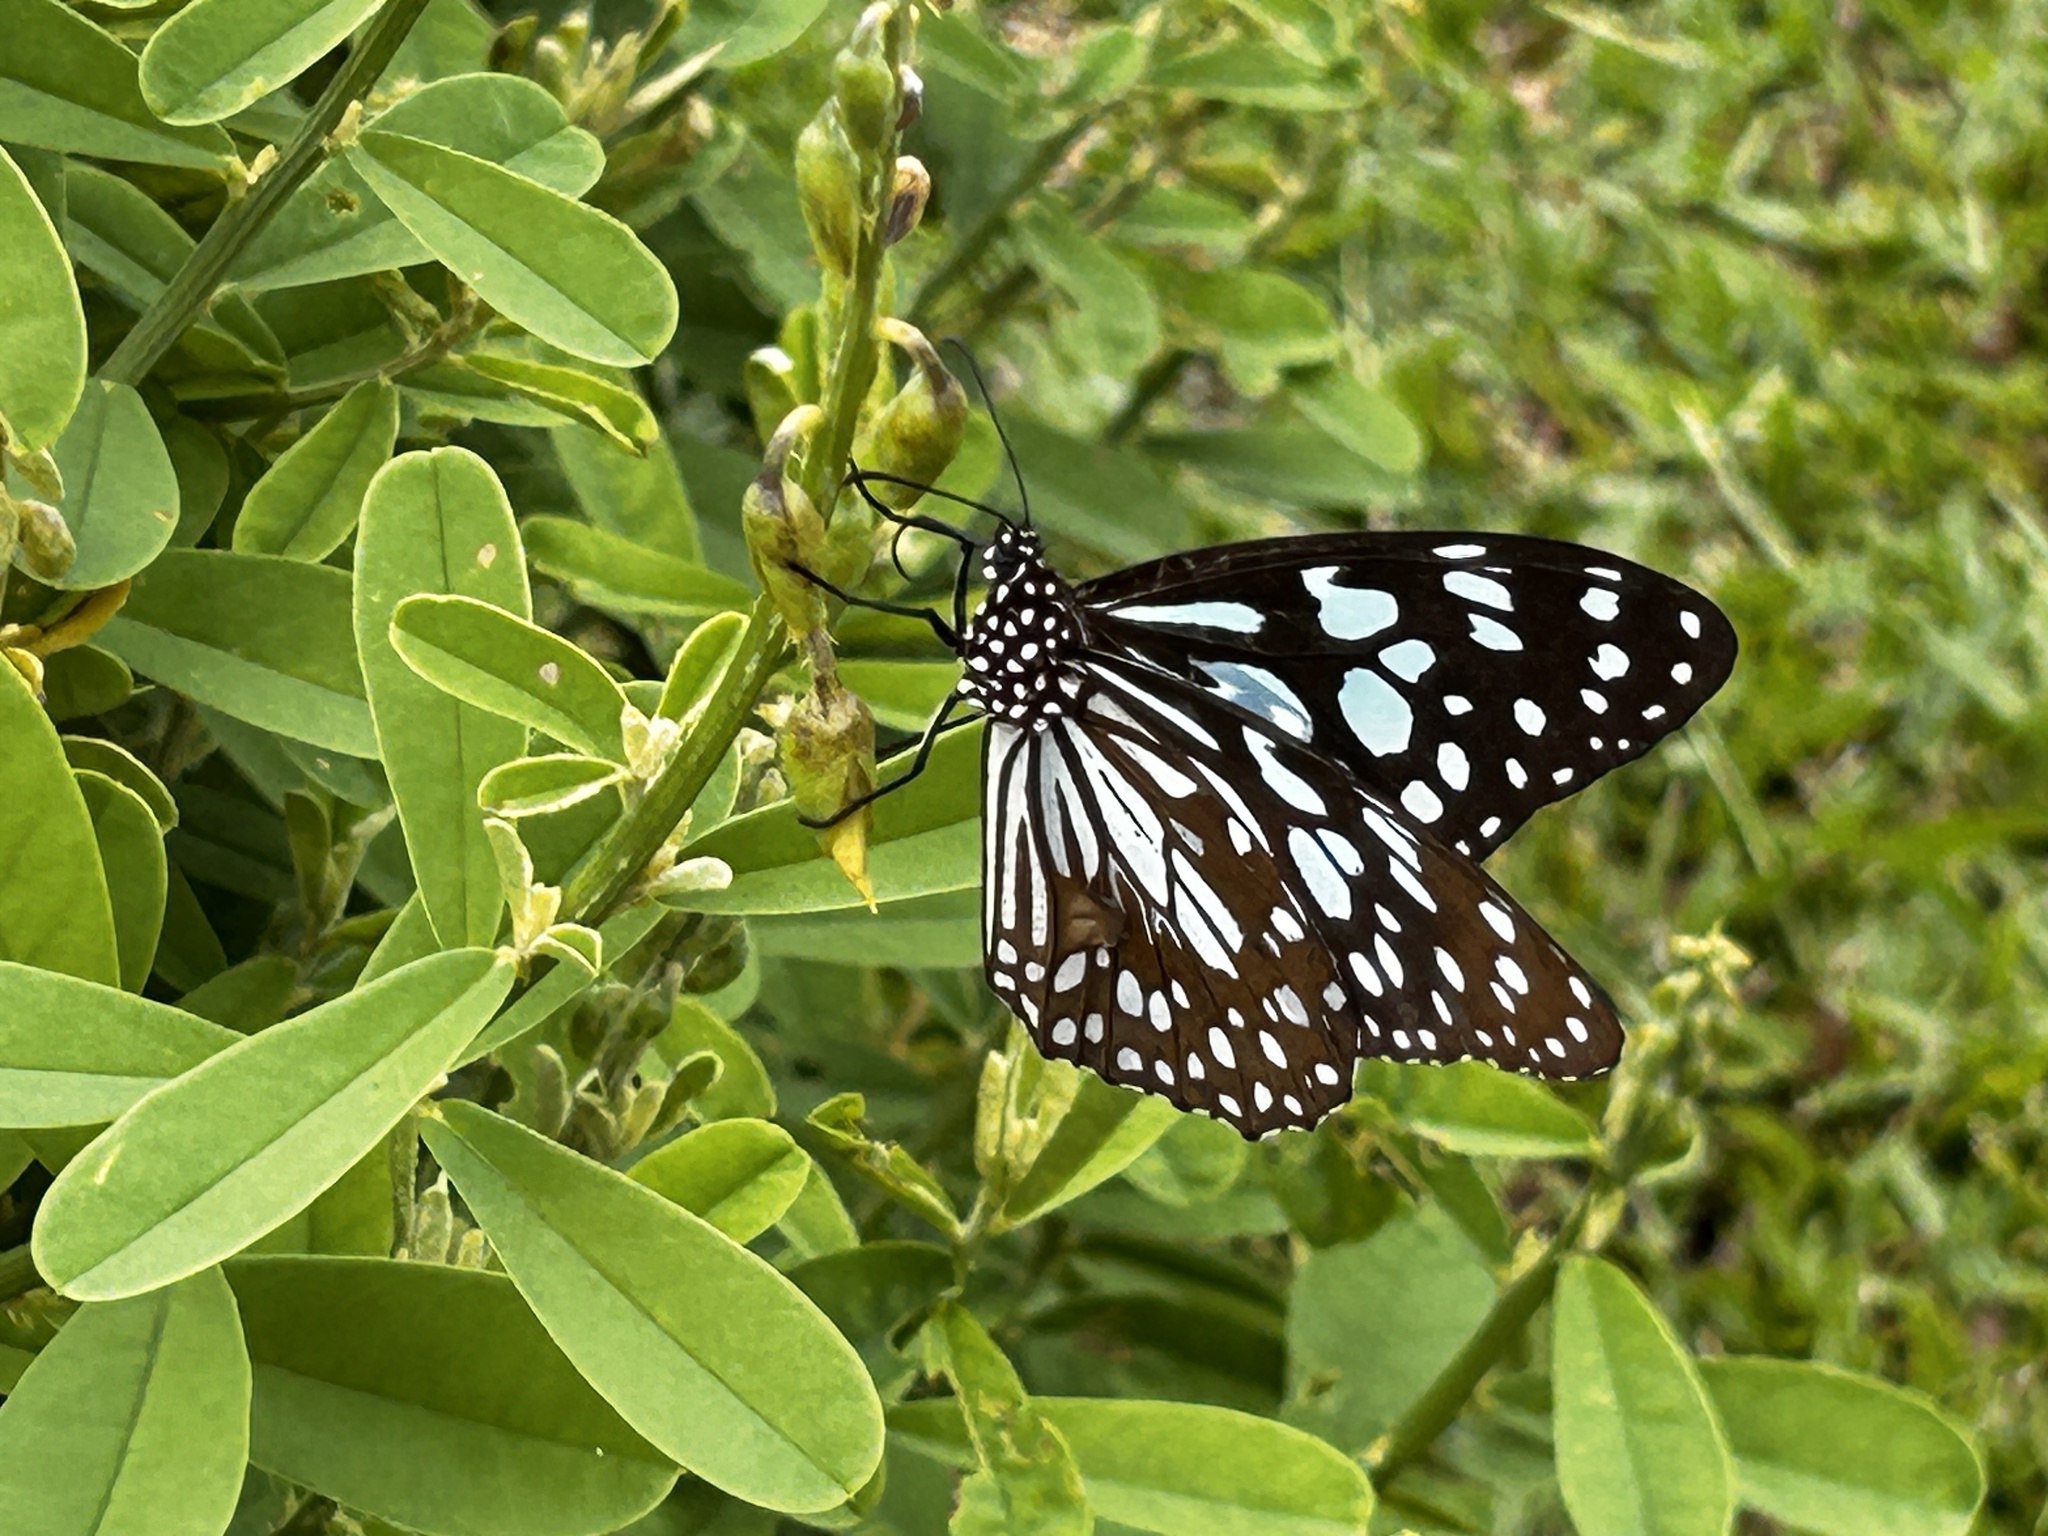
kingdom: Animalia
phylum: Arthropoda
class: Insecta
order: Lepidoptera
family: Nymphalidae
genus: Tirumala
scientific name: Tirumala limniace
